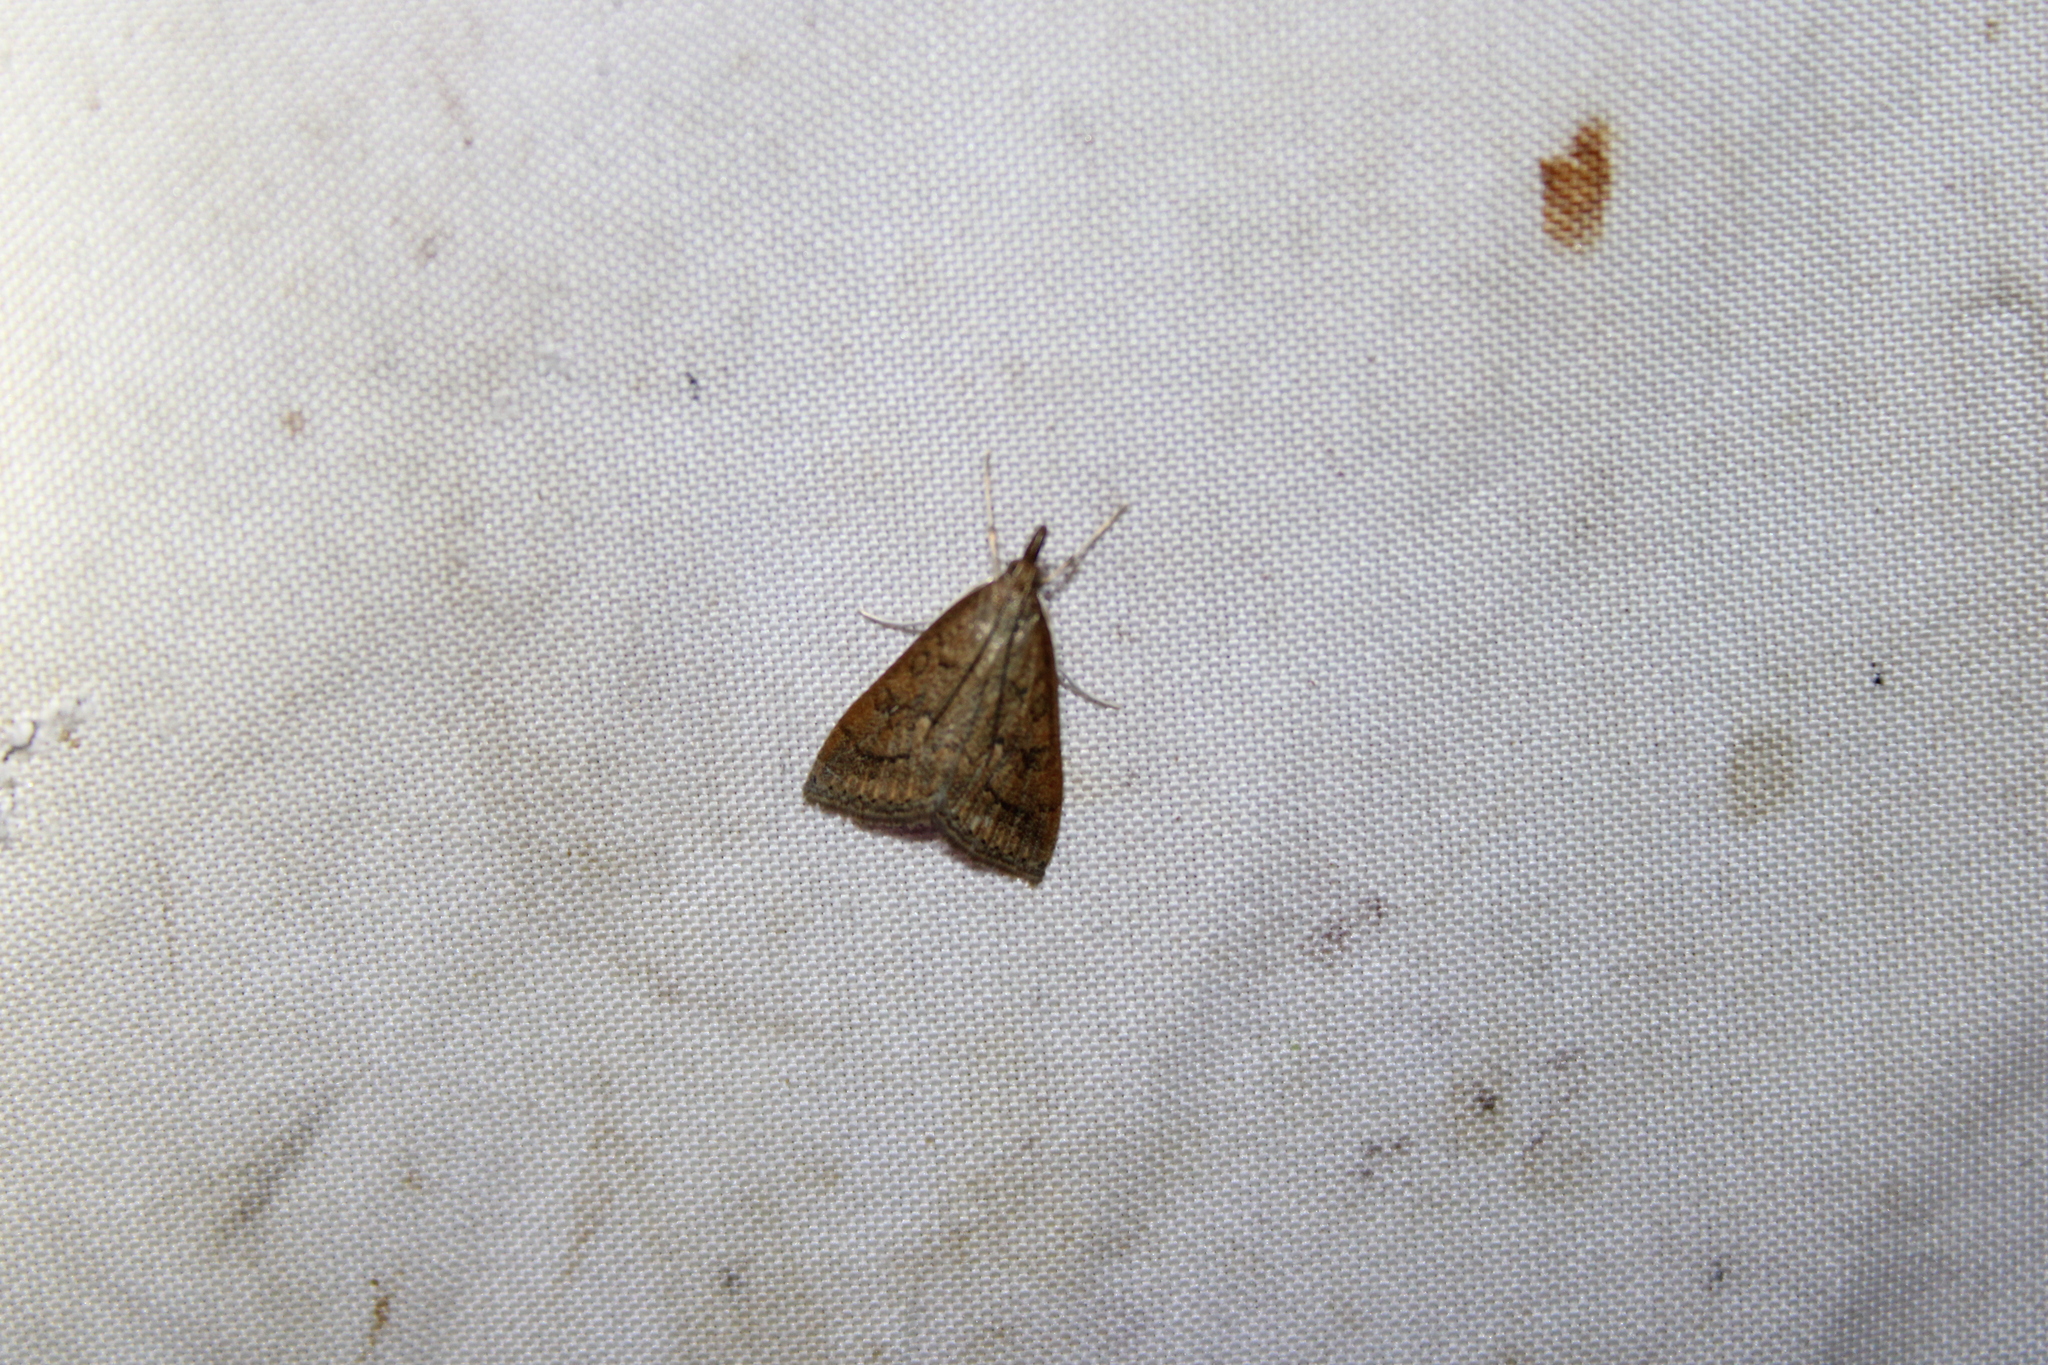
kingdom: Animalia
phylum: Arthropoda
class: Insecta
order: Lepidoptera
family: Crambidae
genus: Udea
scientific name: Udea rubigalis
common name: Celery leaftier moth
